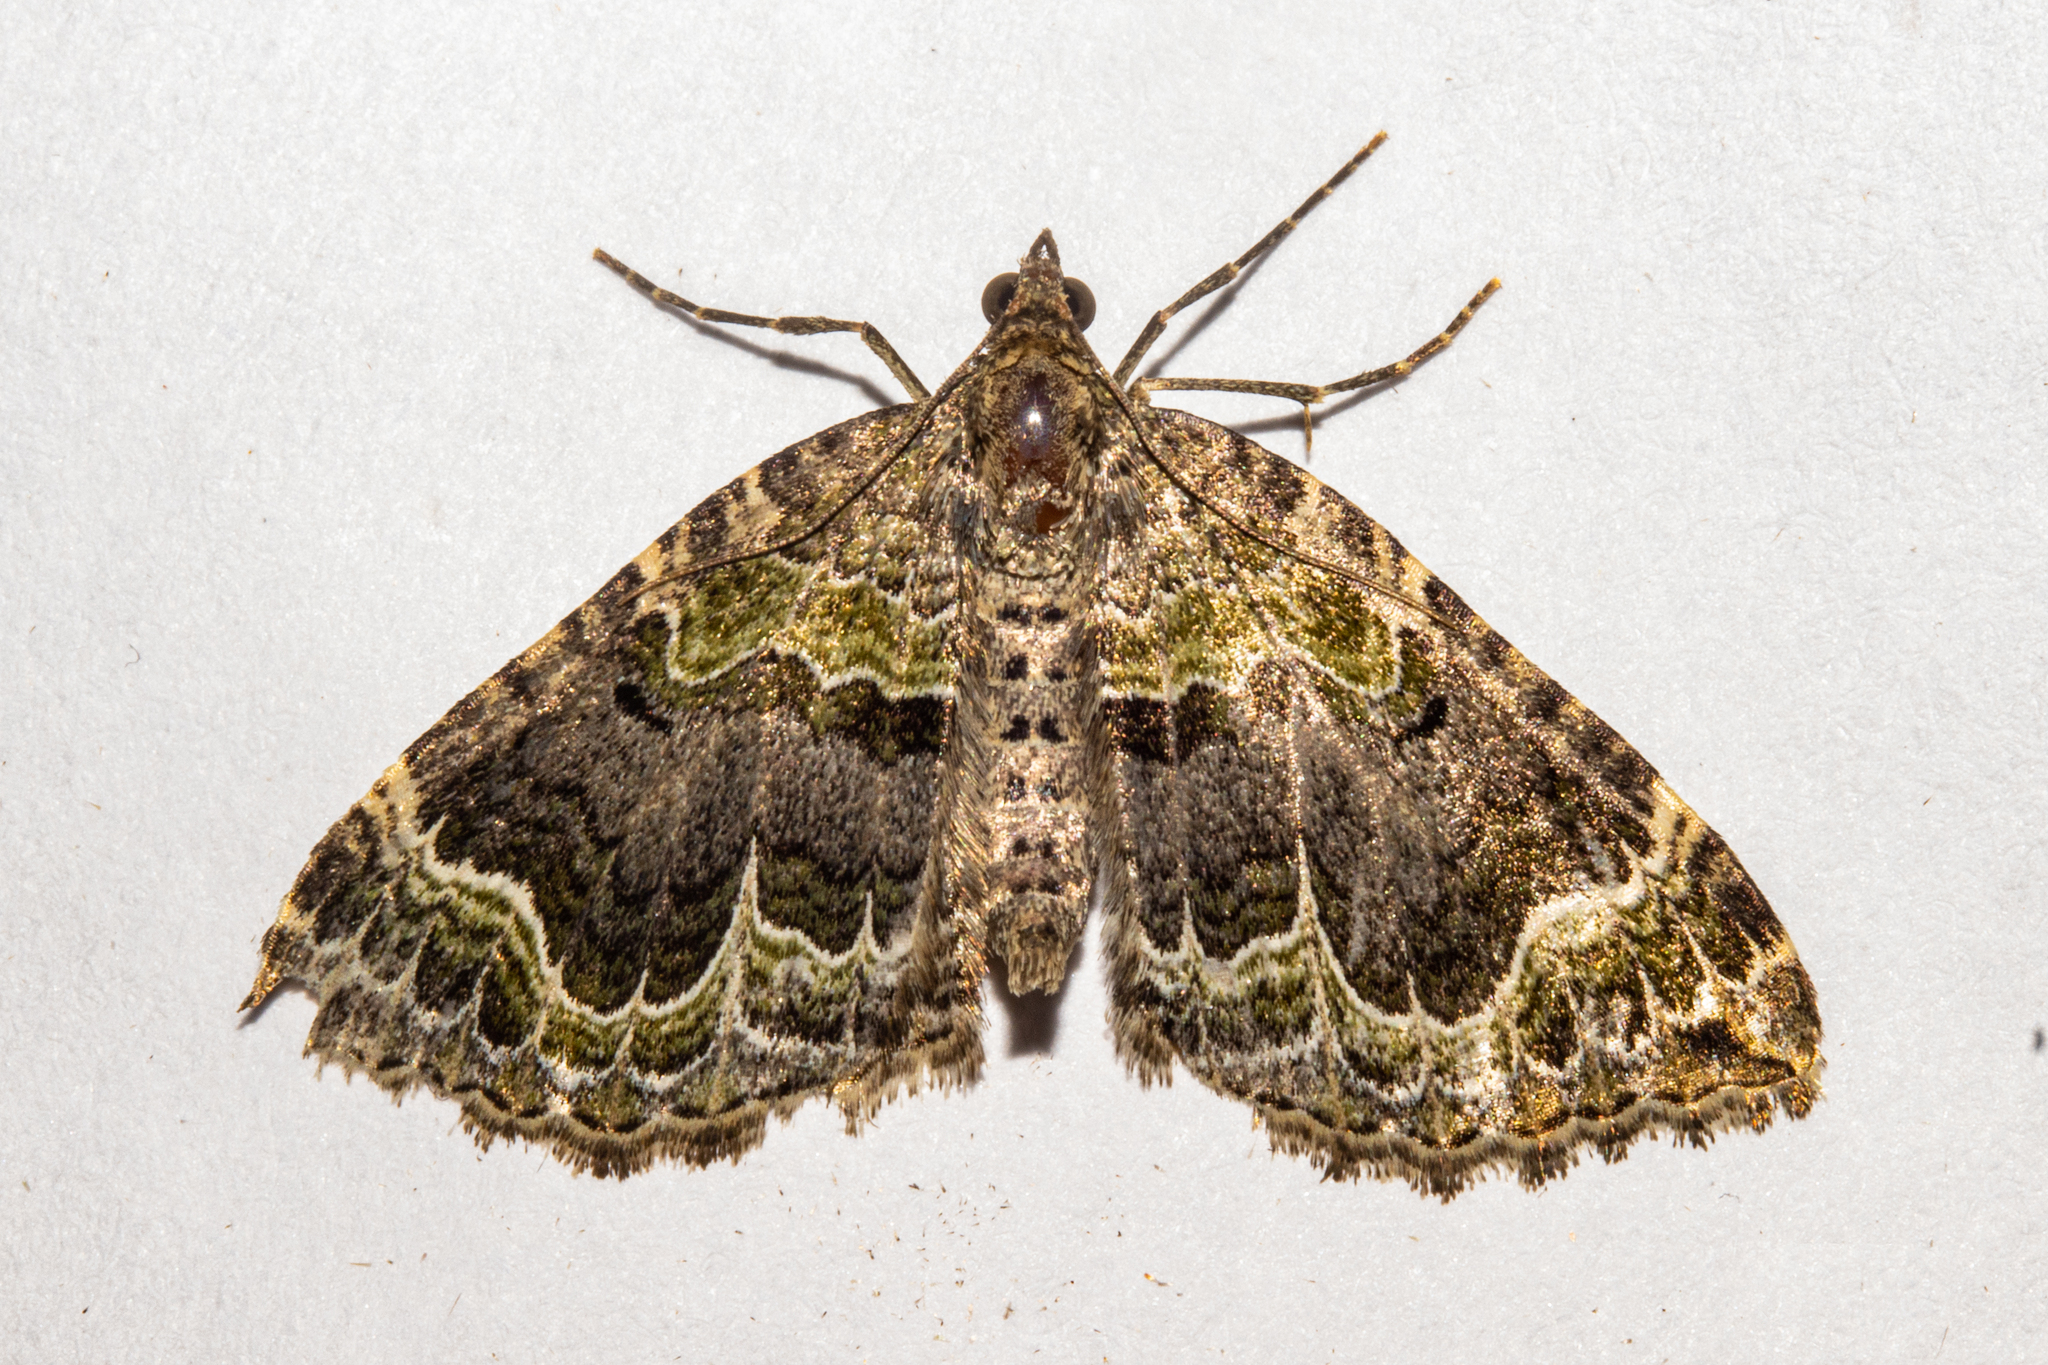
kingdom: Animalia
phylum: Arthropoda
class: Insecta
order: Lepidoptera
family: Geometridae
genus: Hydriomena
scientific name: Hydriomena rixata
